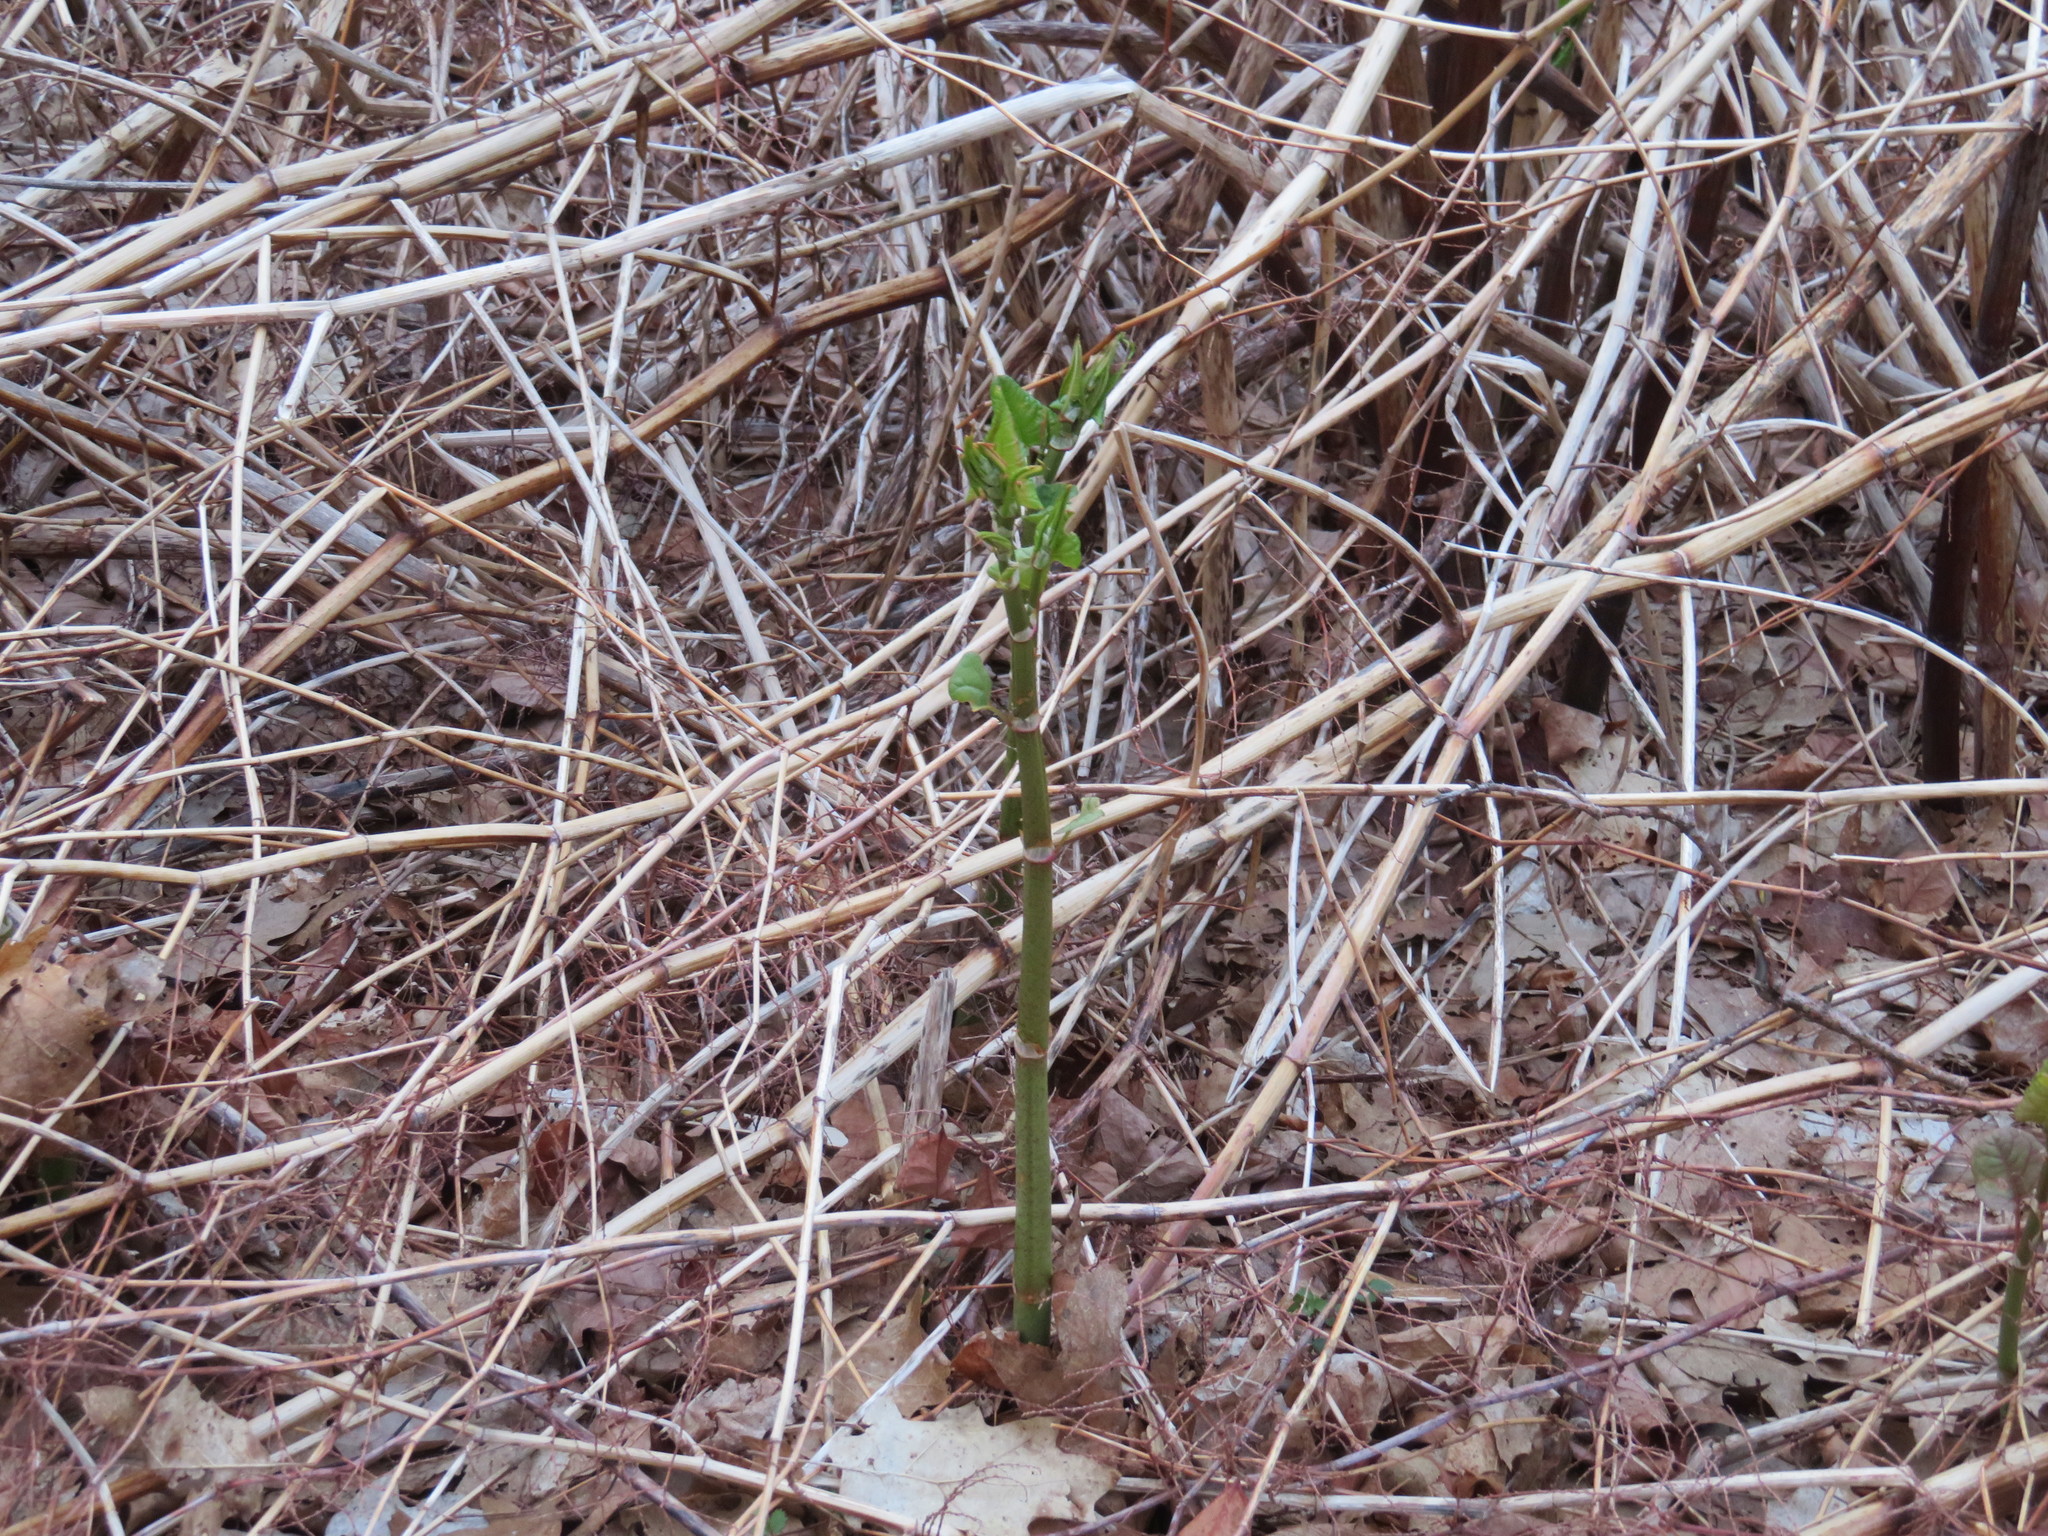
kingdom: Plantae
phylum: Tracheophyta
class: Magnoliopsida
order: Caryophyllales
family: Polygonaceae
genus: Reynoutria
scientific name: Reynoutria japonica
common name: Japanese knotweed
